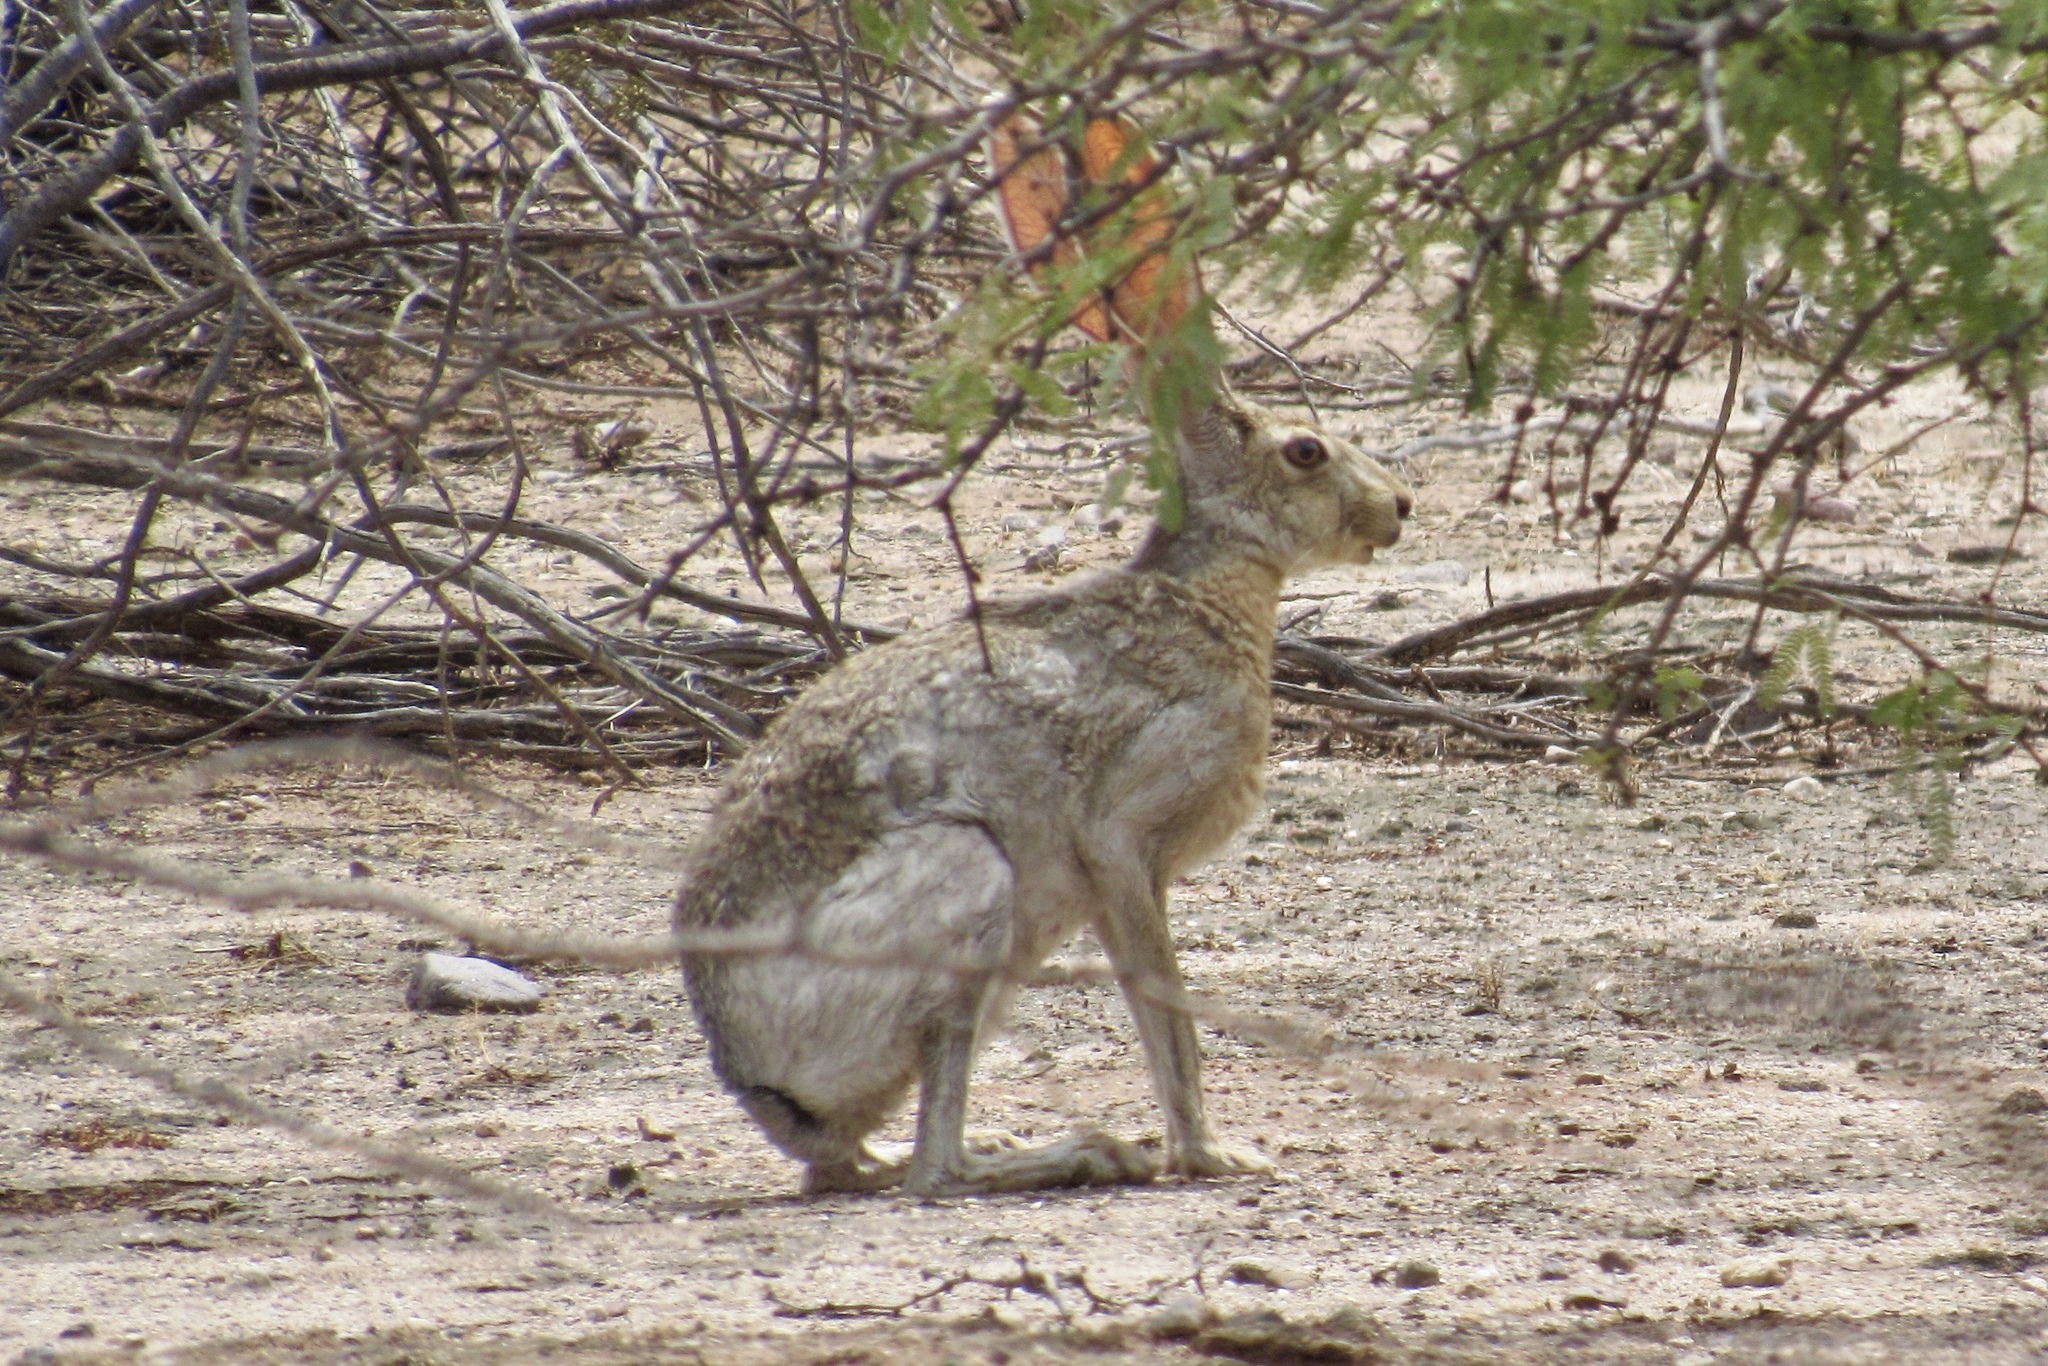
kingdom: Animalia
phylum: Chordata
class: Mammalia
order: Lagomorpha
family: Leporidae
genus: Lepus
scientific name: Lepus alleni
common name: Antelope jackrabbit
